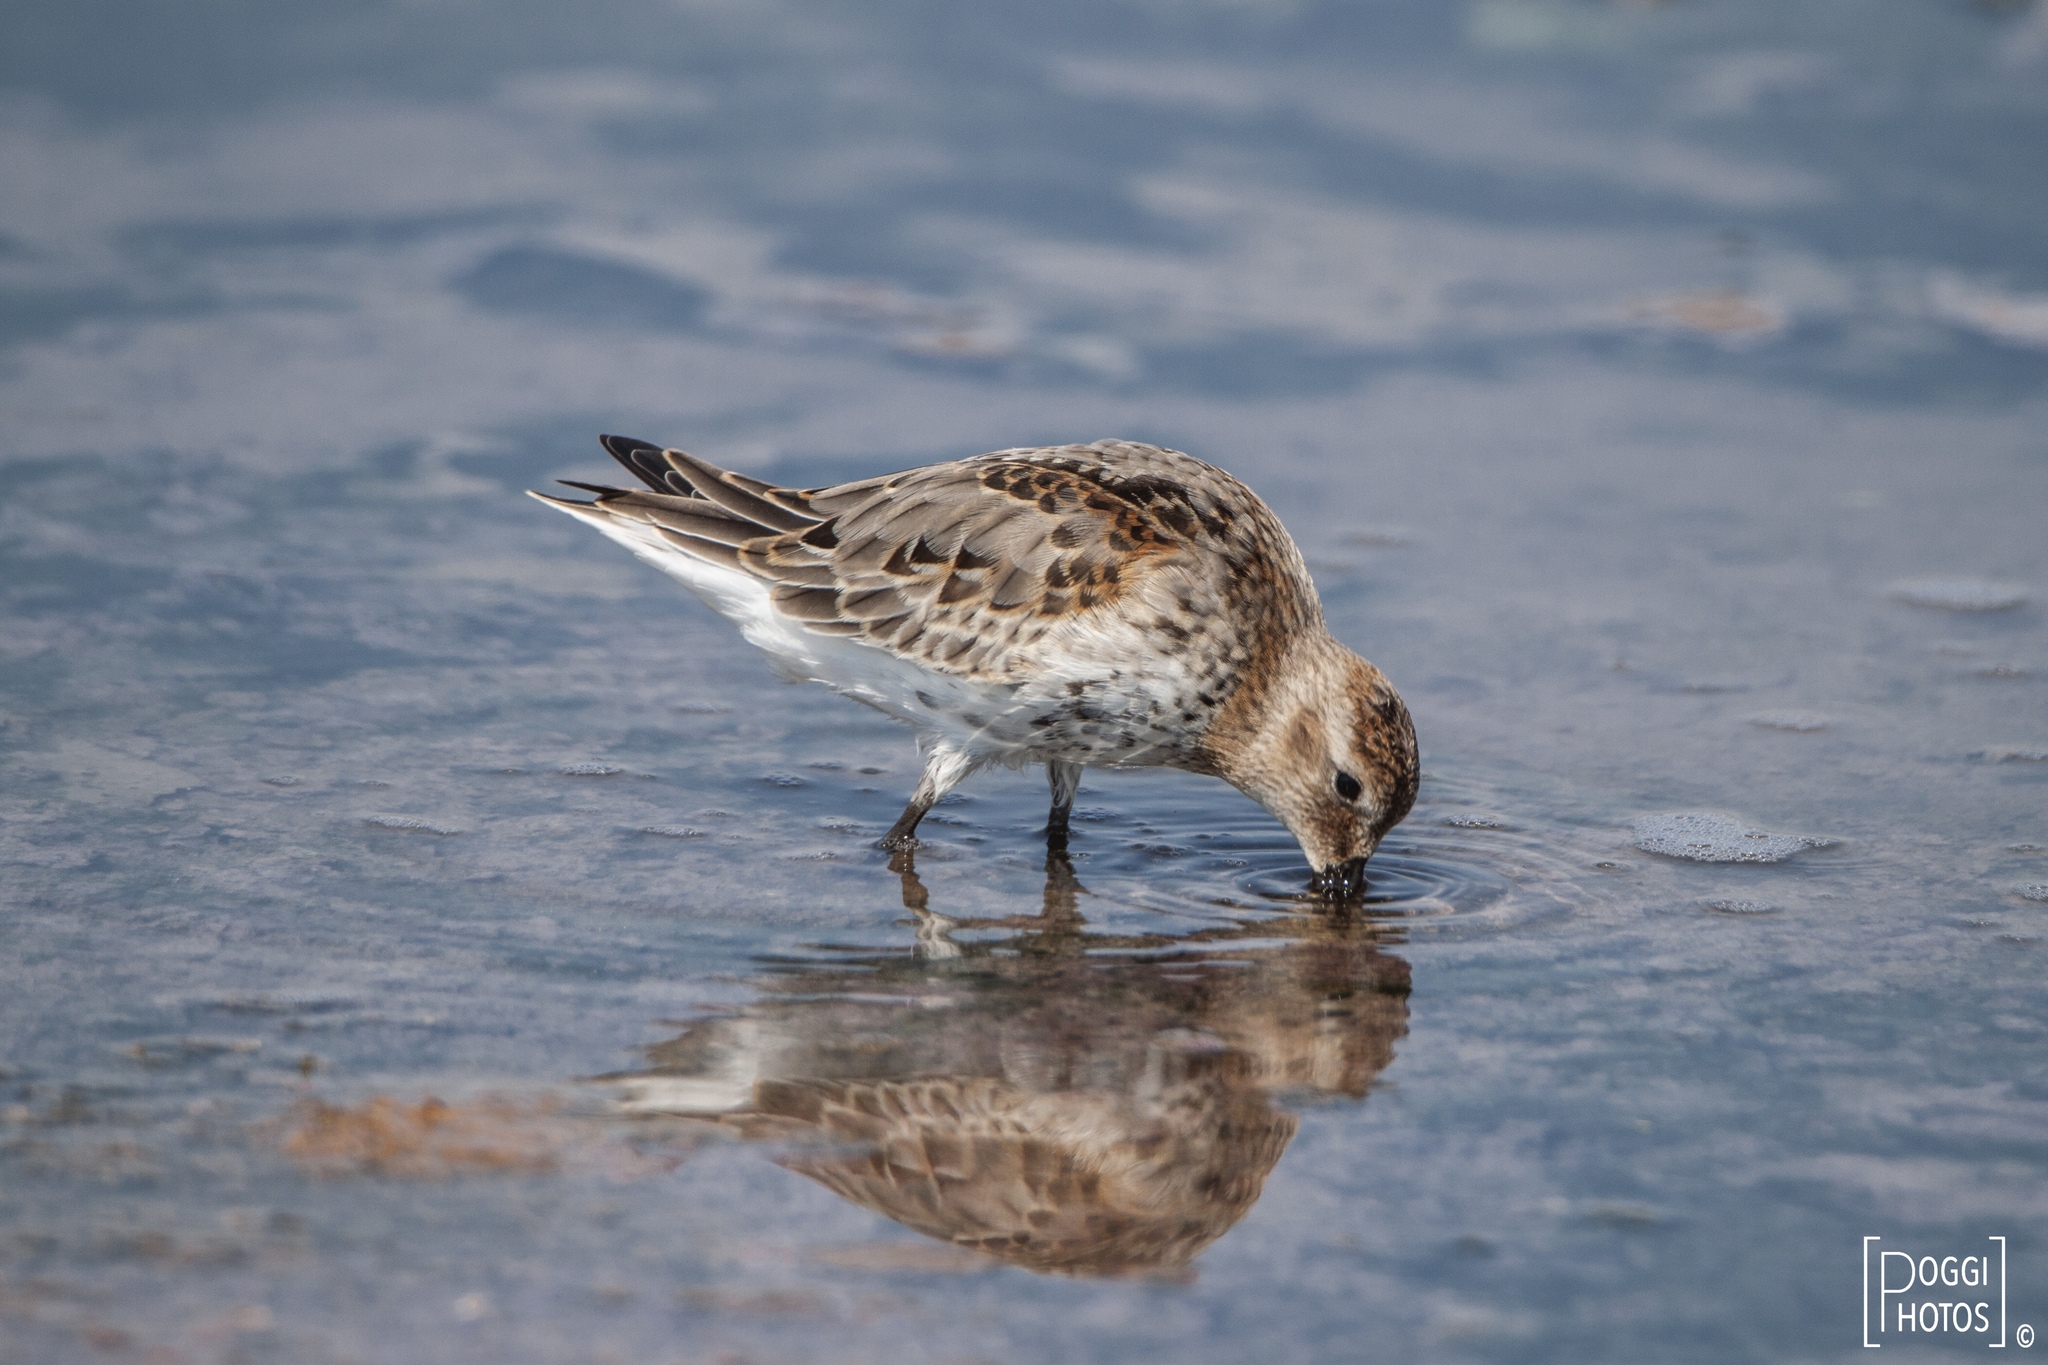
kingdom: Animalia
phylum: Chordata
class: Aves
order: Charadriiformes
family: Scolopacidae
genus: Calidris
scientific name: Calidris alpina
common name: Dunlin
